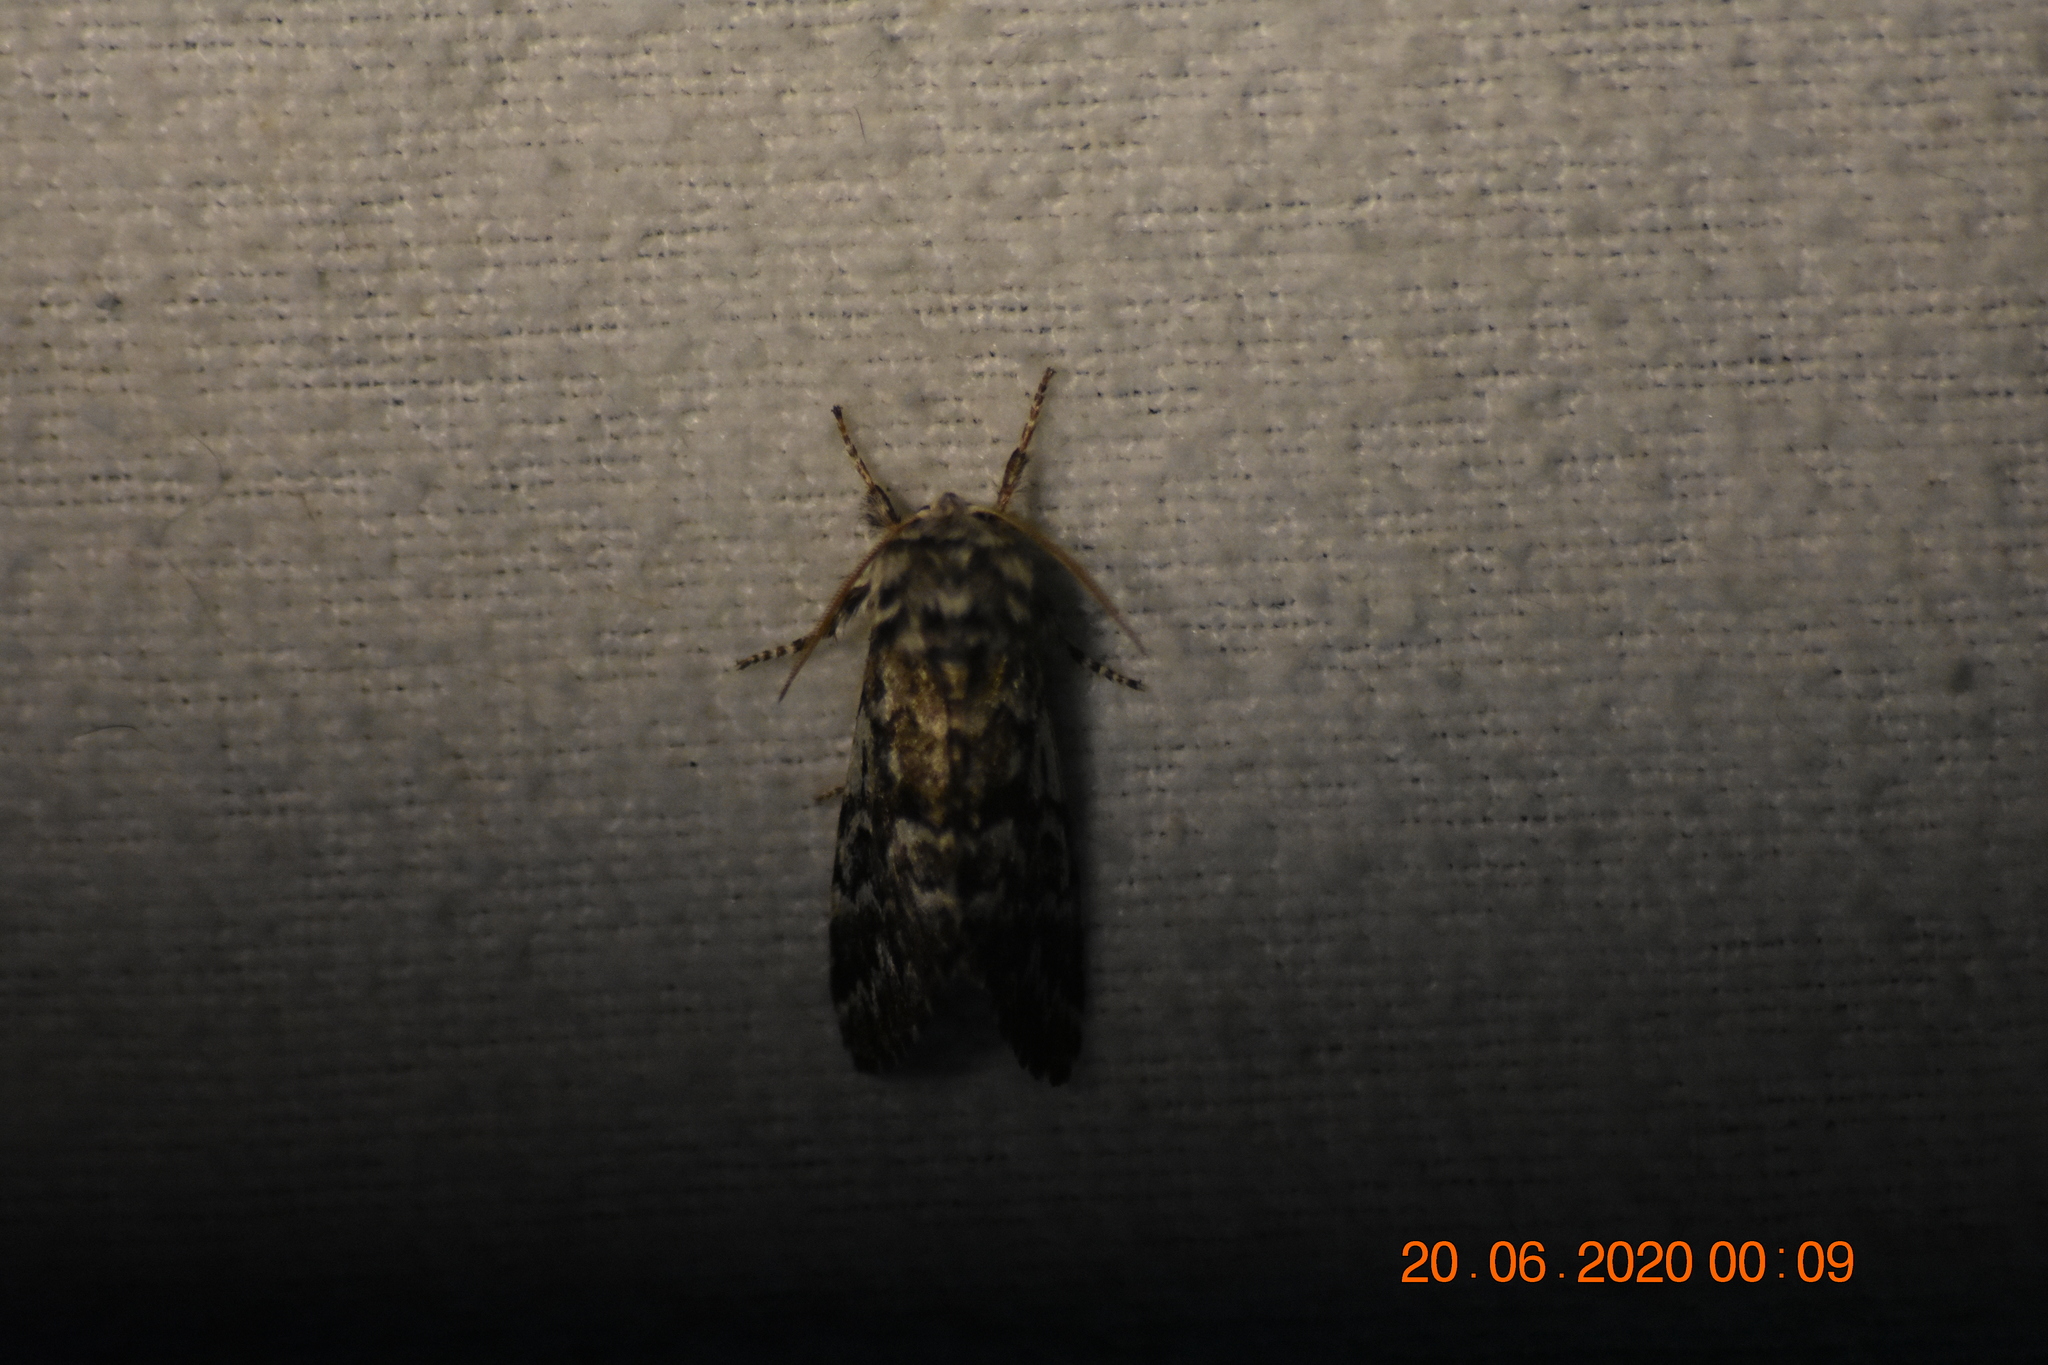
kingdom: Animalia
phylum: Arthropoda
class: Insecta
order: Lepidoptera
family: Noctuidae
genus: Panthea
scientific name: Panthea acronyctoides
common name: Black zigzag moth
